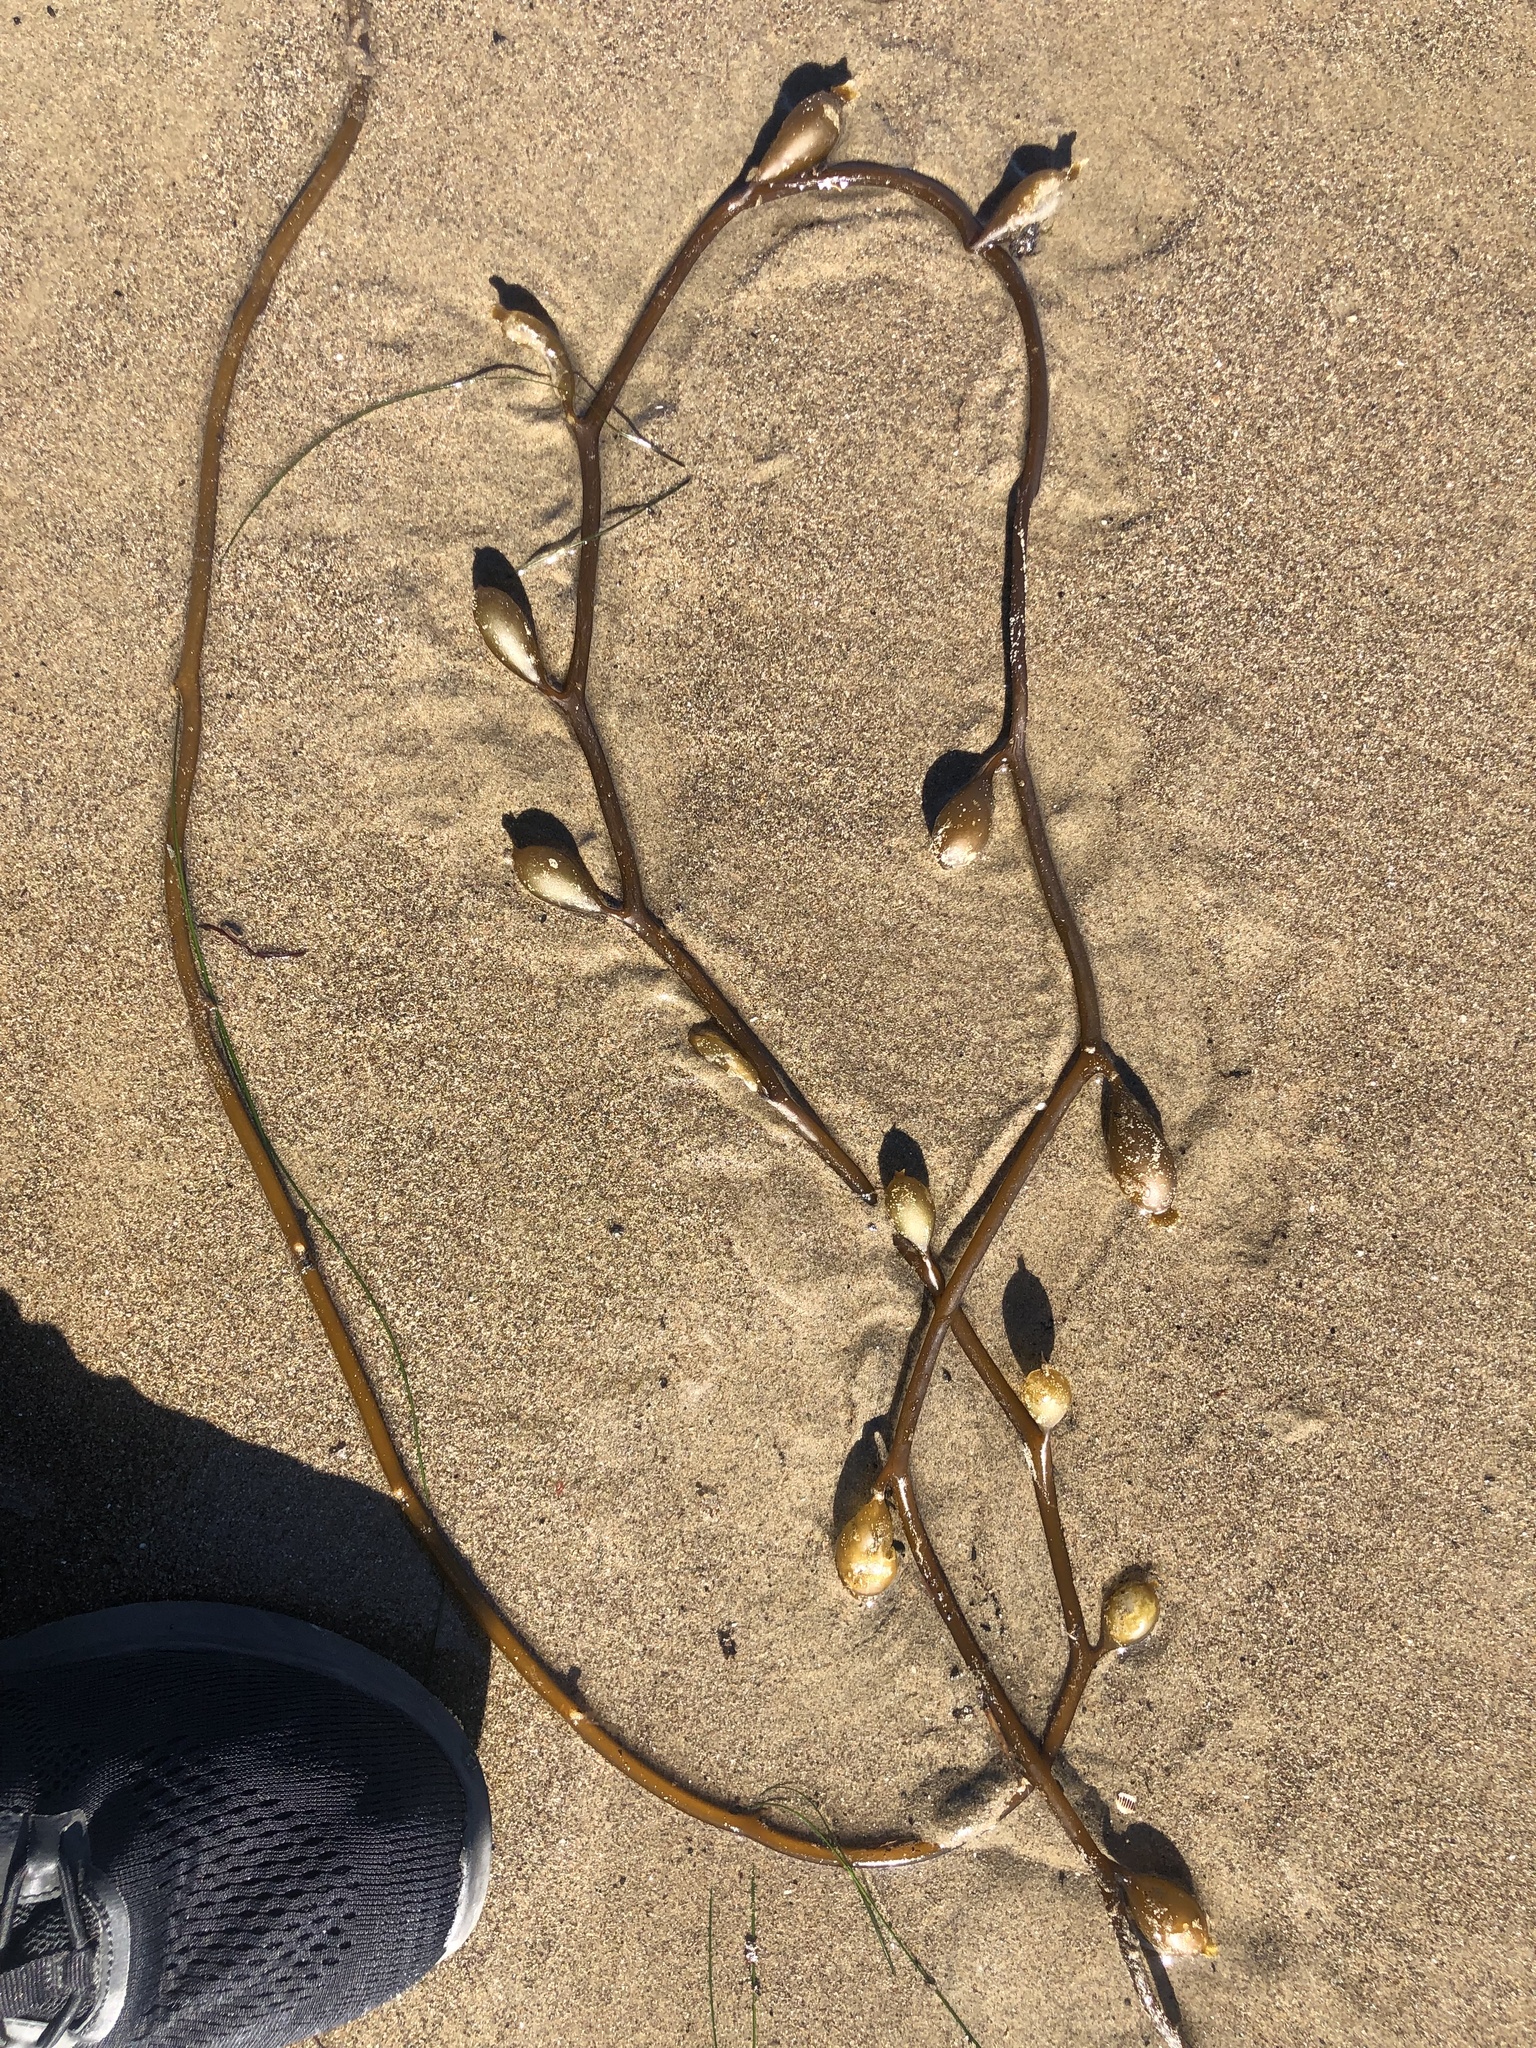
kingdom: Chromista
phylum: Ochrophyta
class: Phaeophyceae
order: Laminariales
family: Laminariaceae
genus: Macrocystis
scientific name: Macrocystis pyrifera
